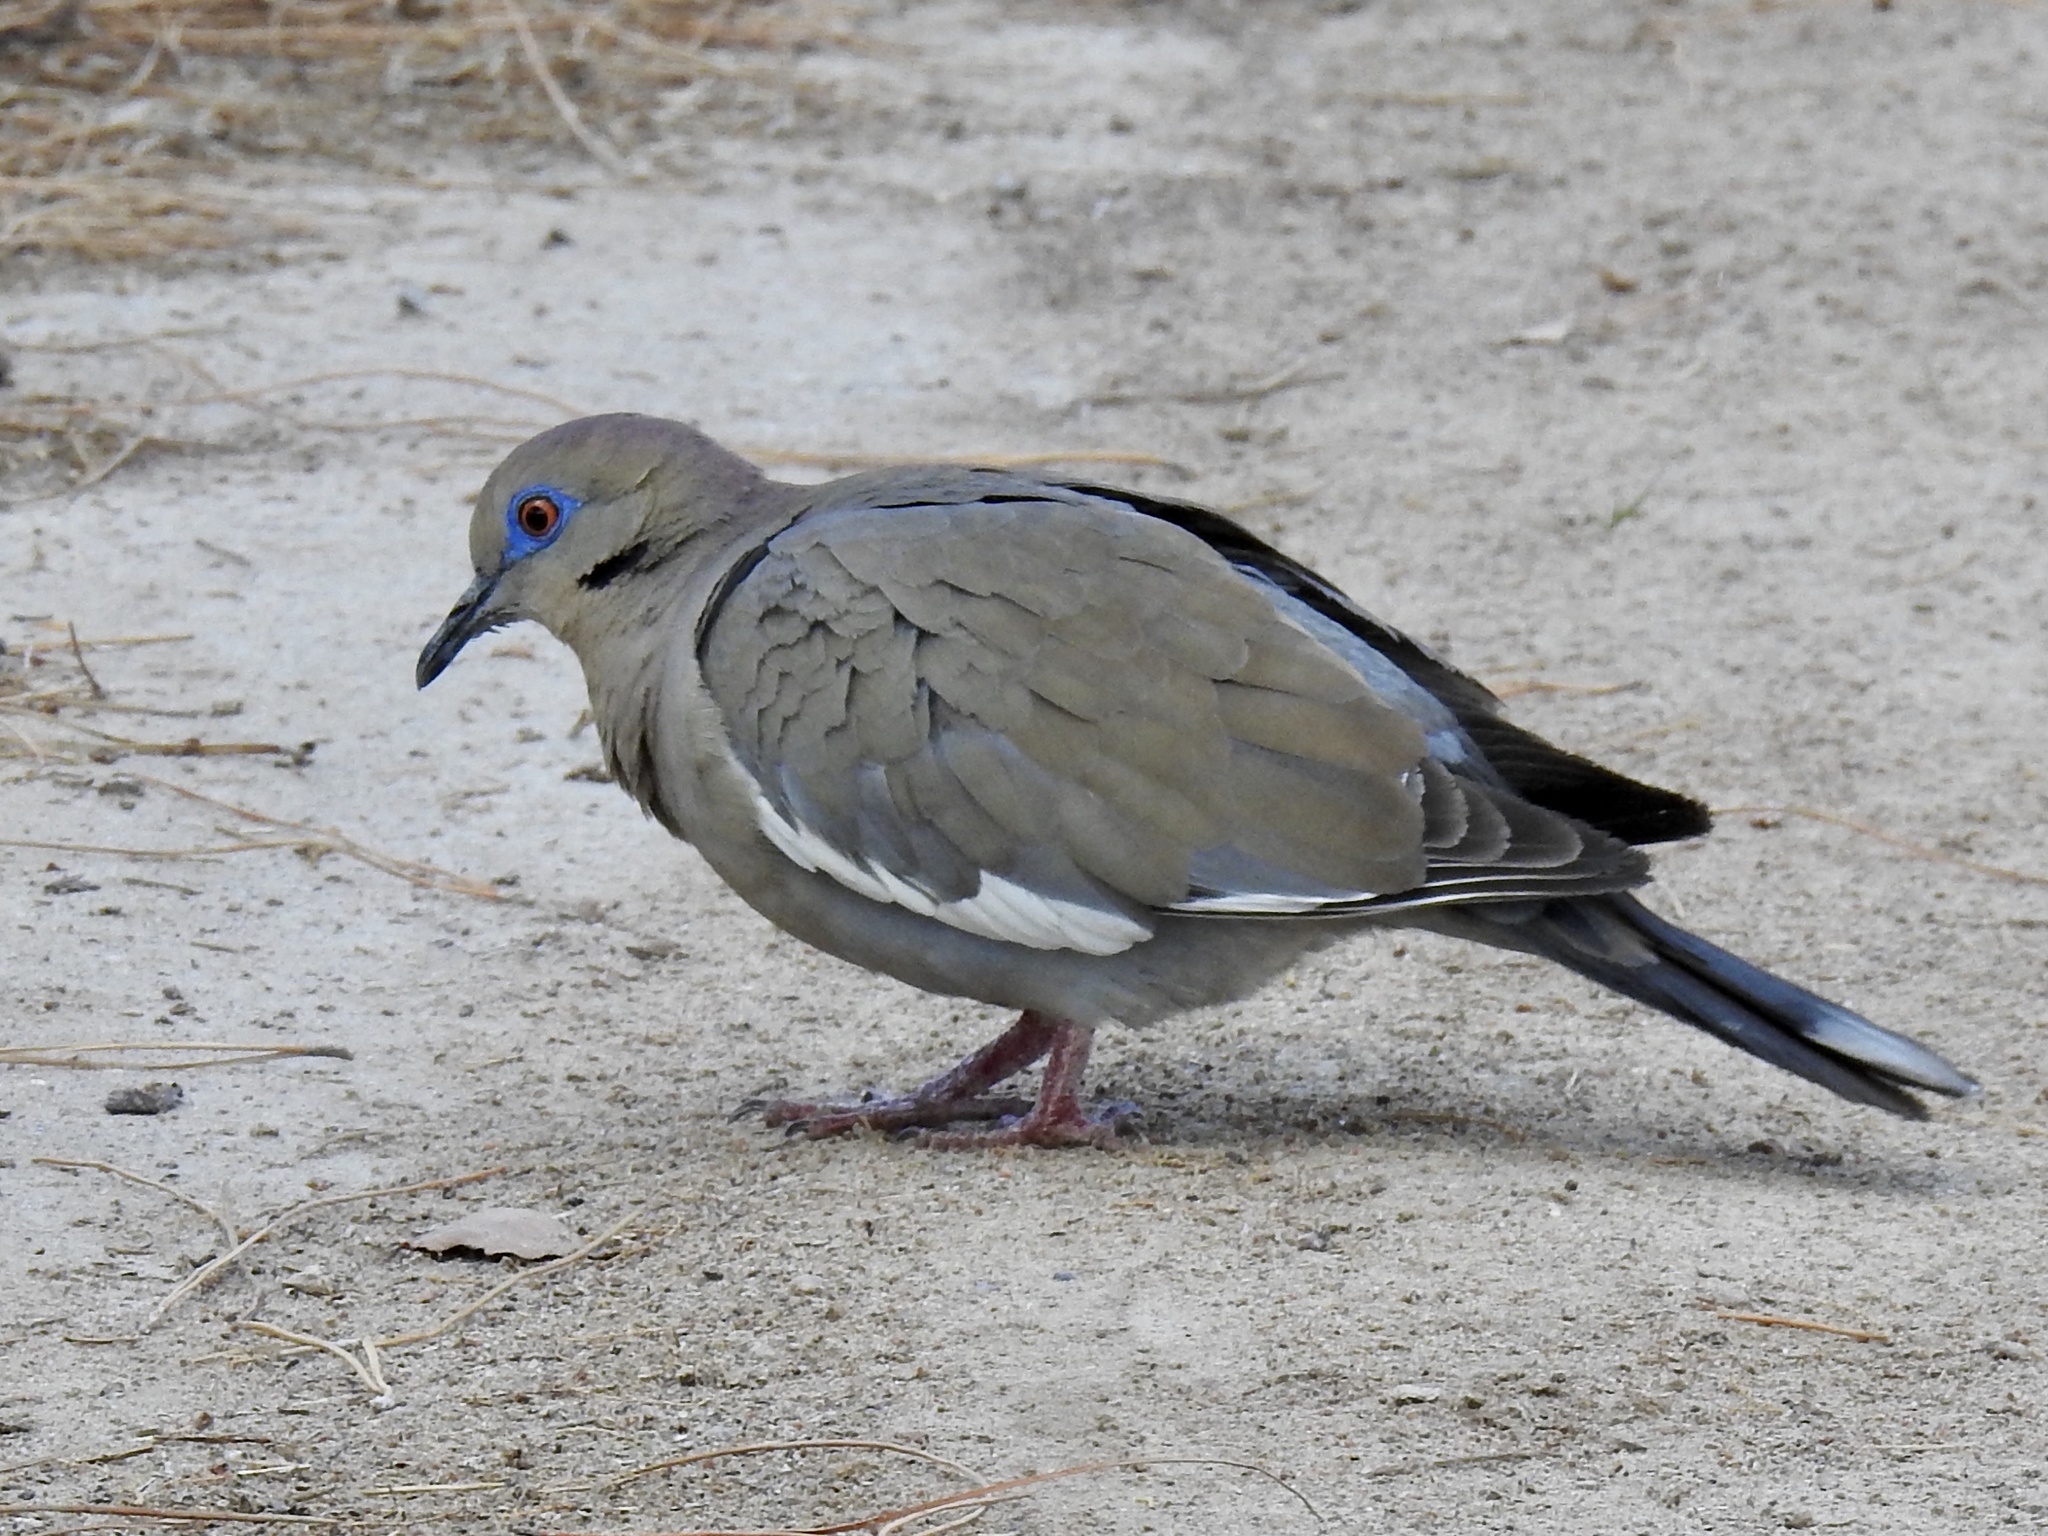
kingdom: Animalia
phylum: Chordata
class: Aves
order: Columbiformes
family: Columbidae
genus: Zenaida
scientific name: Zenaida asiatica
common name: White-winged dove
